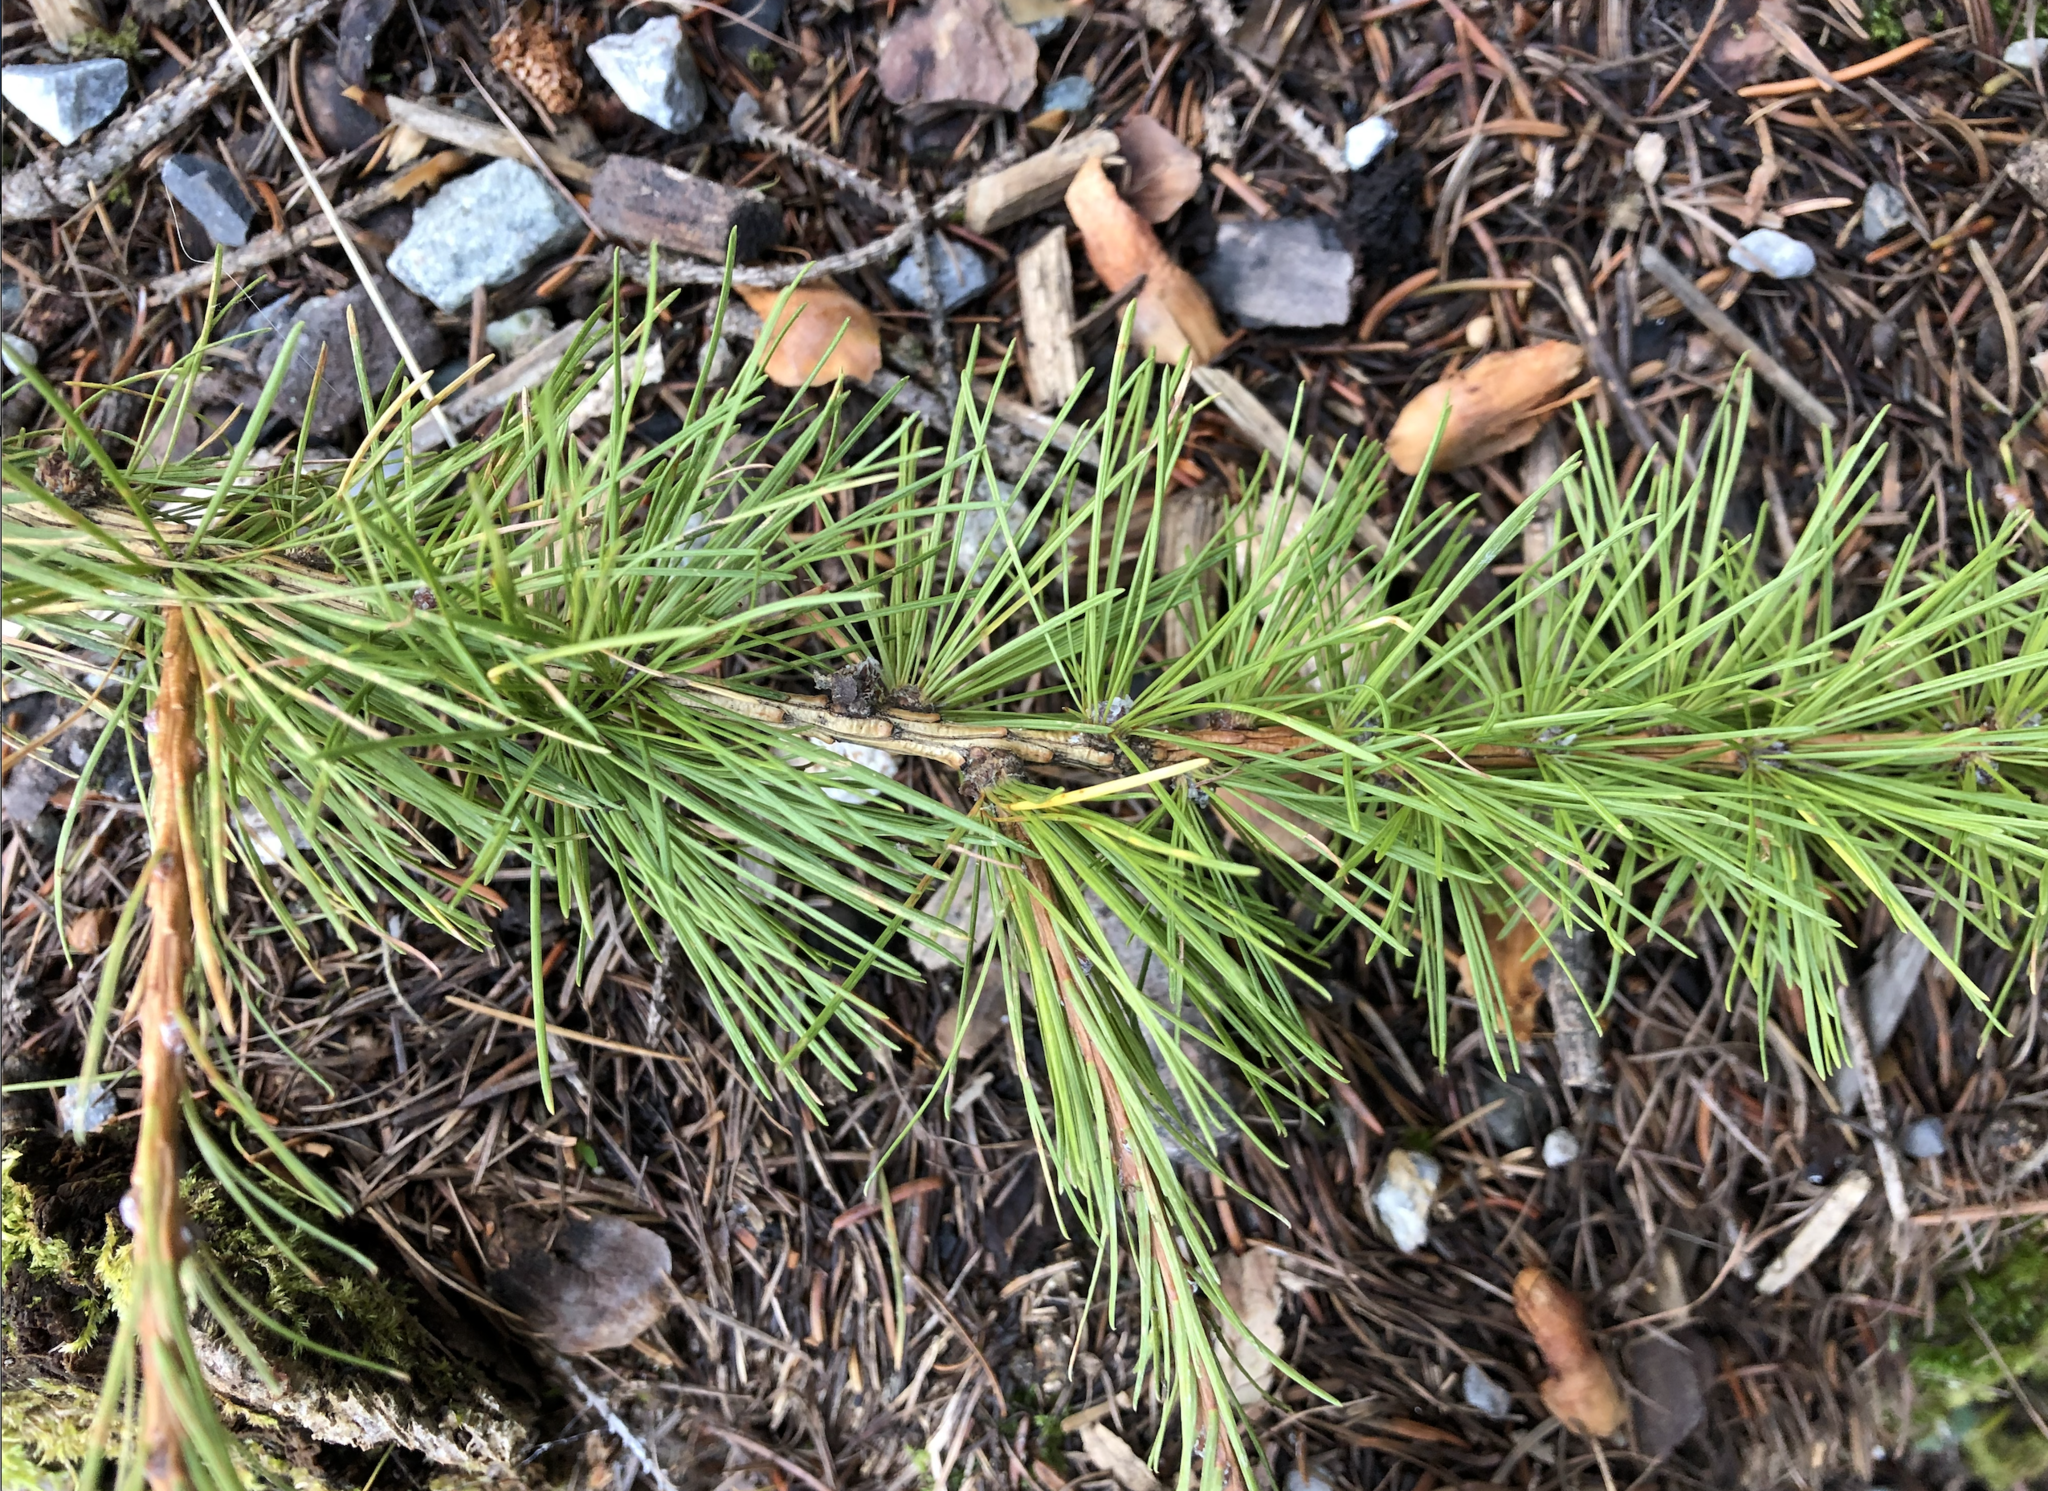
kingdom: Plantae
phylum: Tracheophyta
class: Pinopsida
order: Pinales
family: Pinaceae
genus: Larix
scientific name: Larix decidua
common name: European larch
